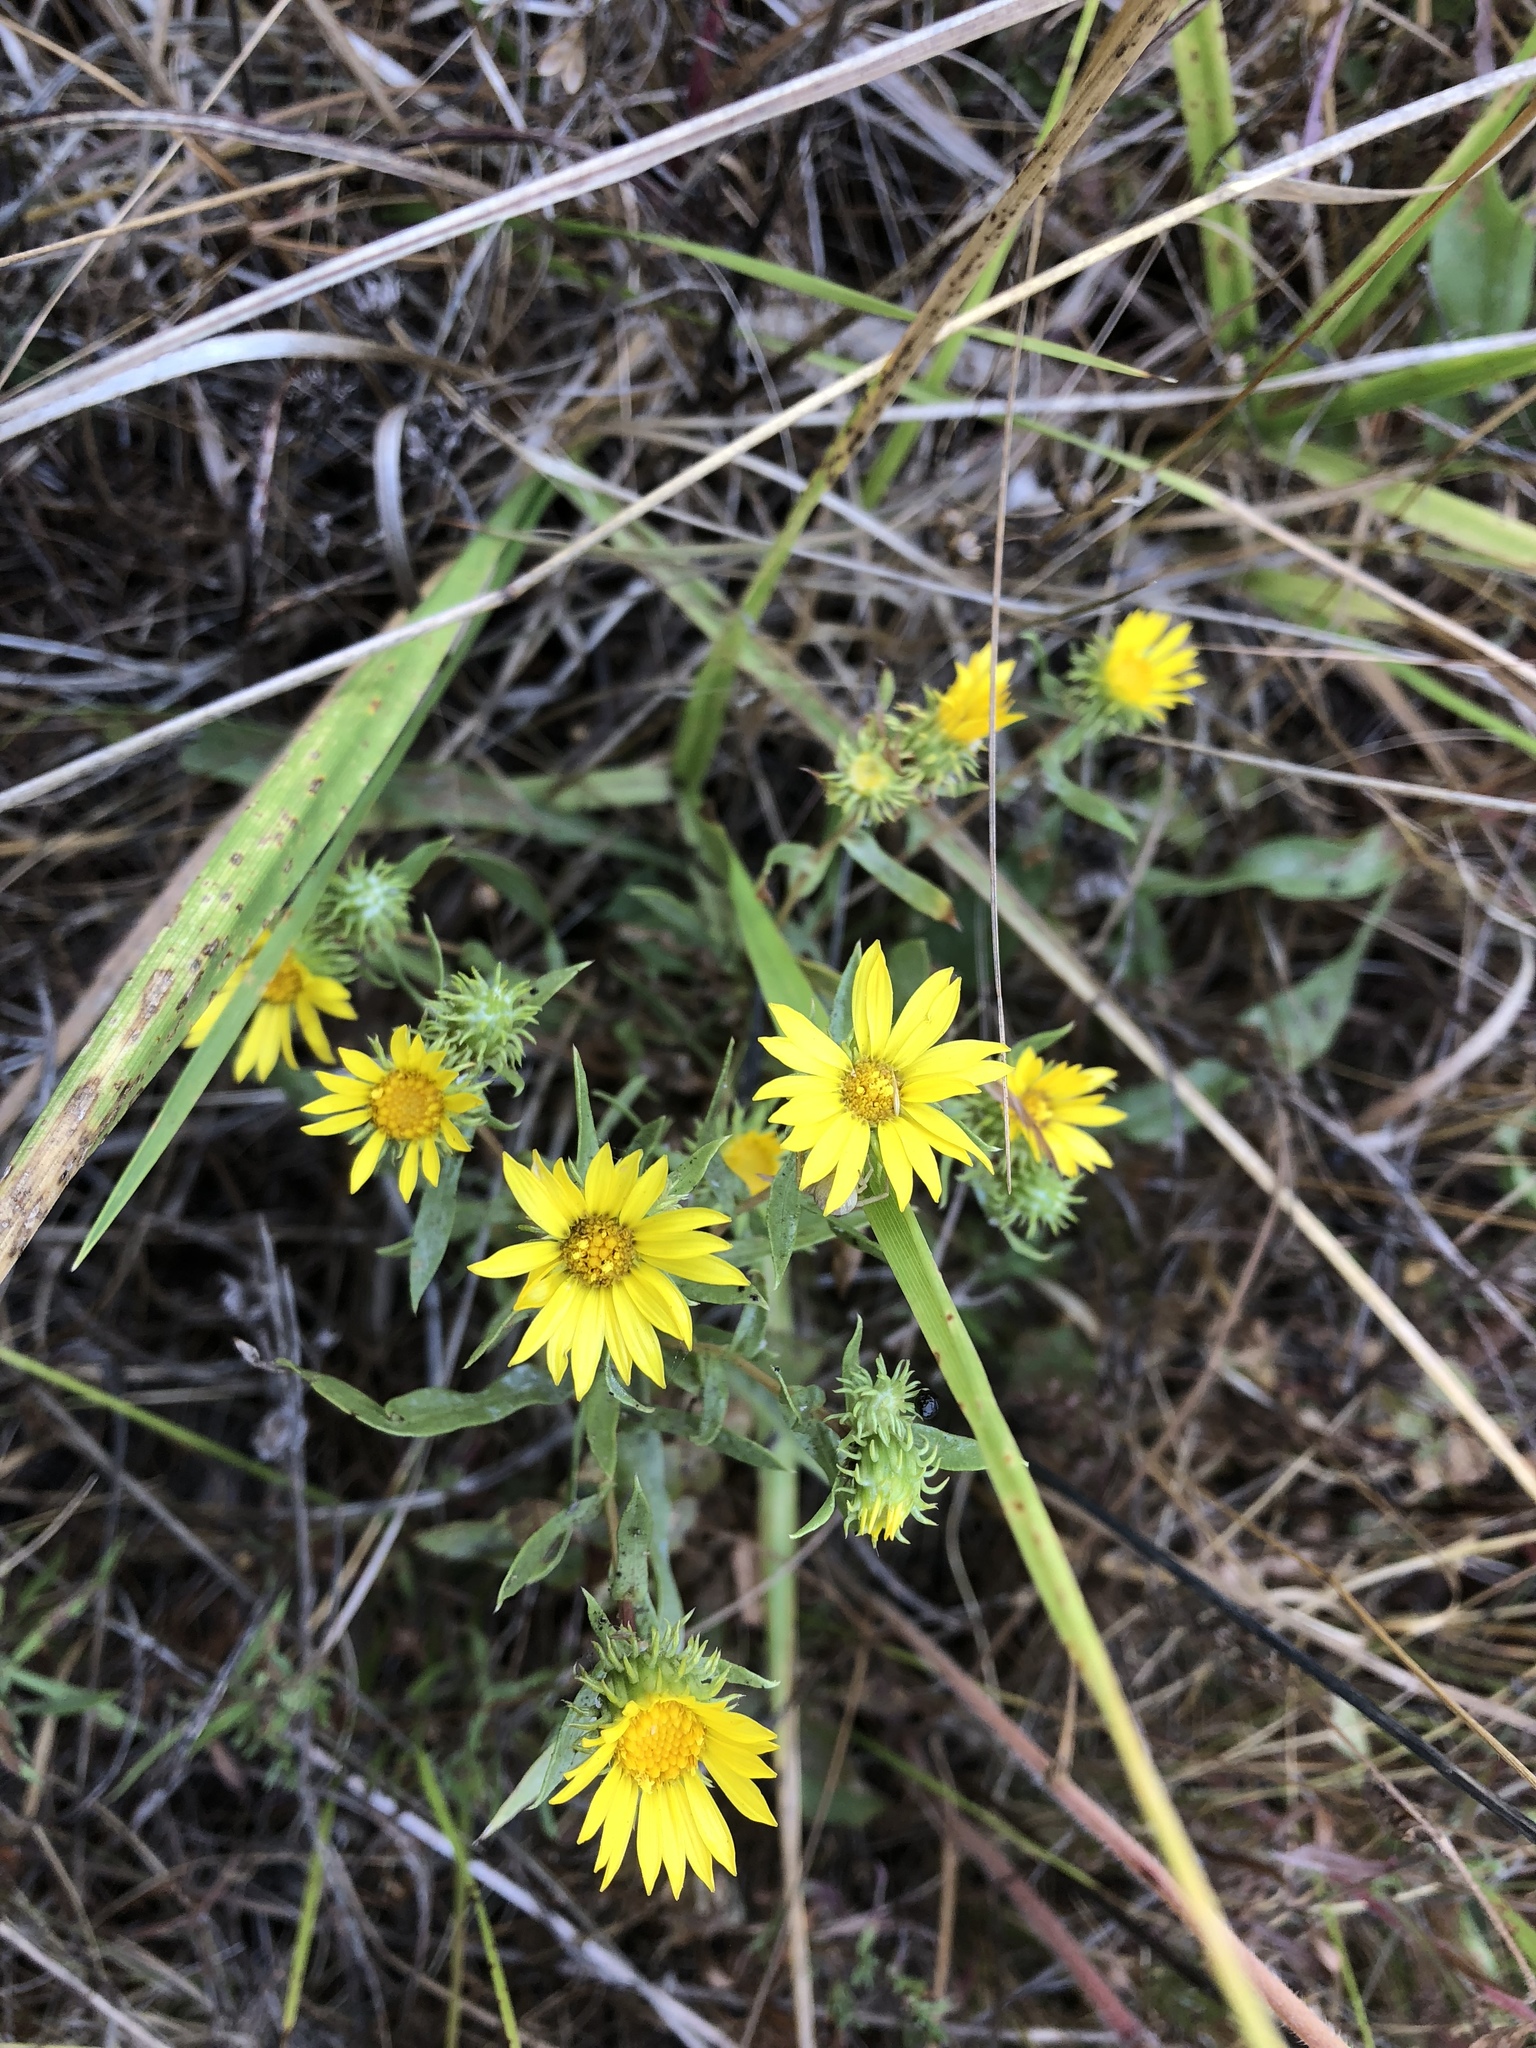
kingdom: Plantae
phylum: Tracheophyta
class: Magnoliopsida
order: Asterales
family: Asteraceae
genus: Grindelia
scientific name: Grindelia integrifolia
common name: Puget sound gumweed
